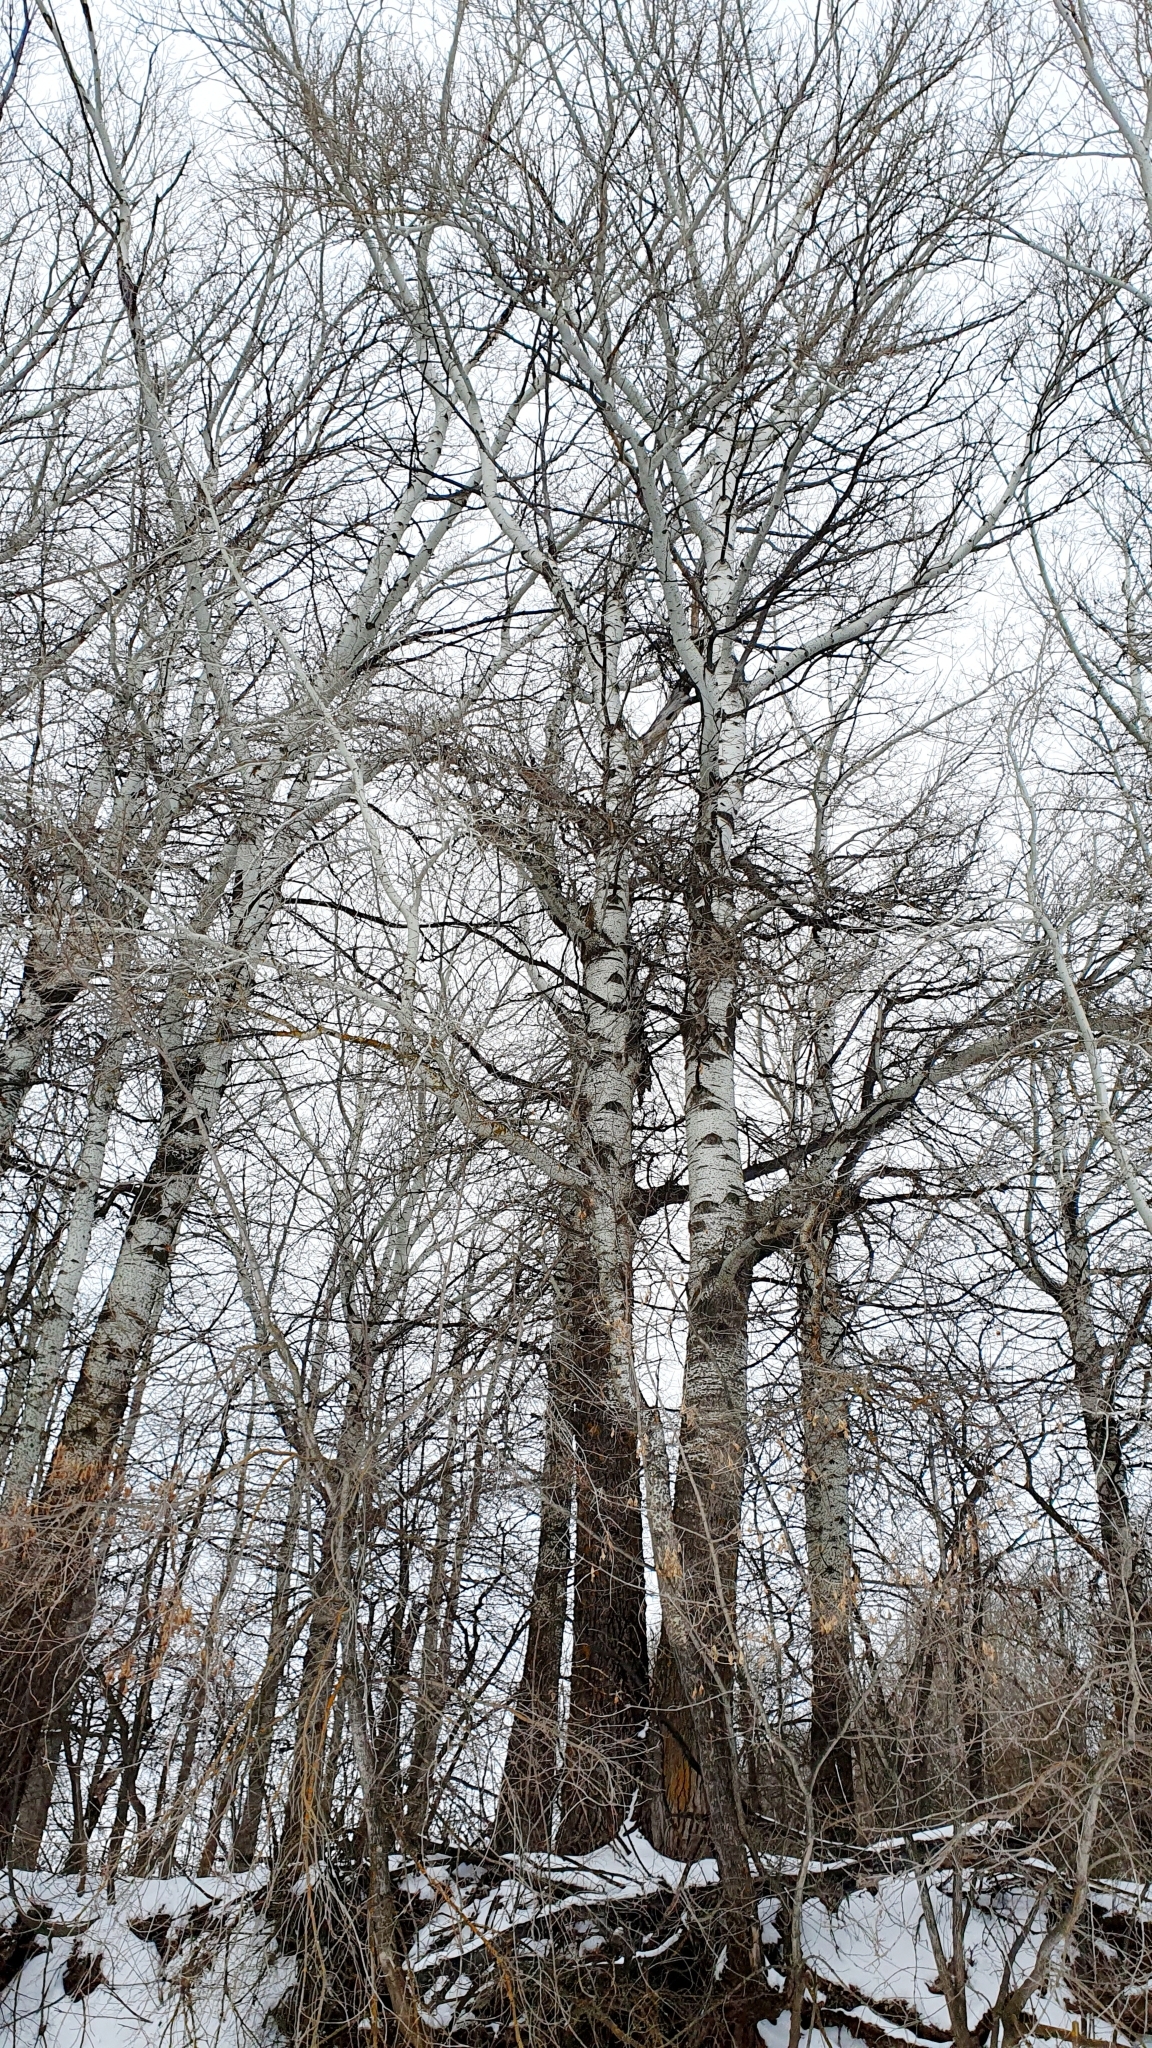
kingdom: Plantae
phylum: Tracheophyta
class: Magnoliopsida
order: Malpighiales
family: Salicaceae
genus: Populus
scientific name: Populus alba
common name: White poplar
